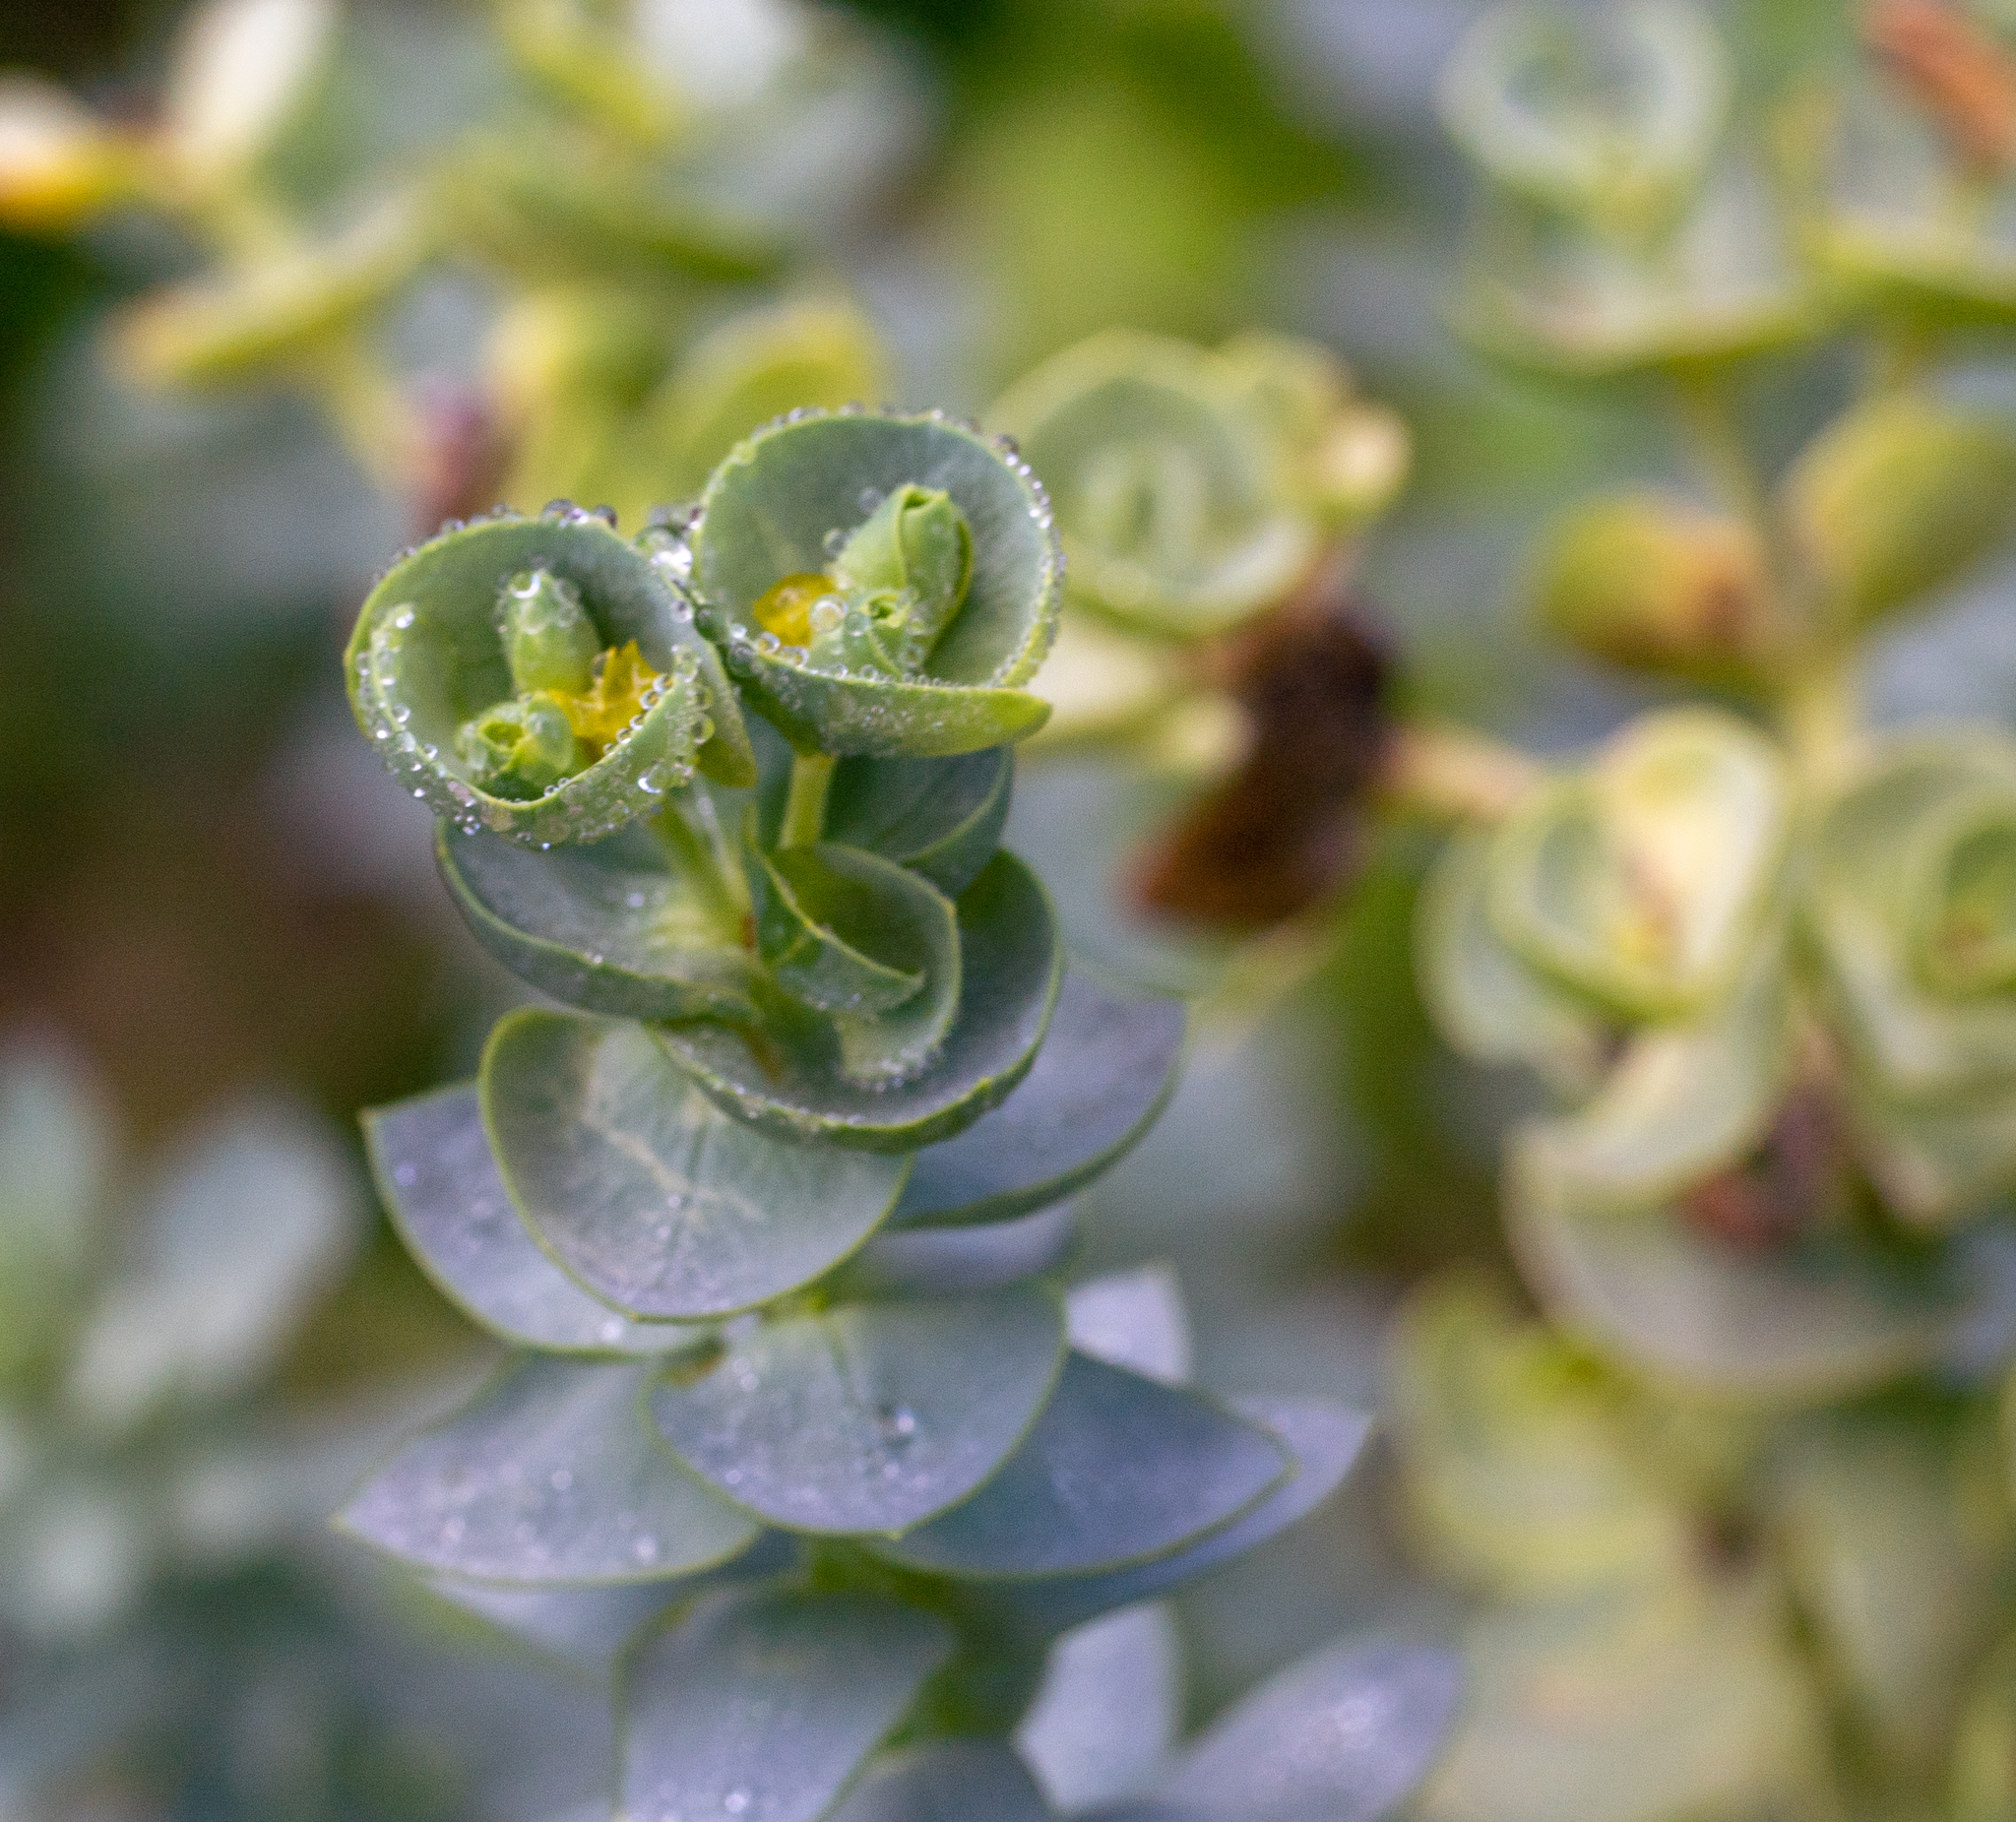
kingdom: Plantae
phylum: Tracheophyta
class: Magnoliopsida
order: Malpighiales
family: Euphorbiaceae
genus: Euphorbia
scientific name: Euphorbia paralias
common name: Sea spurge
